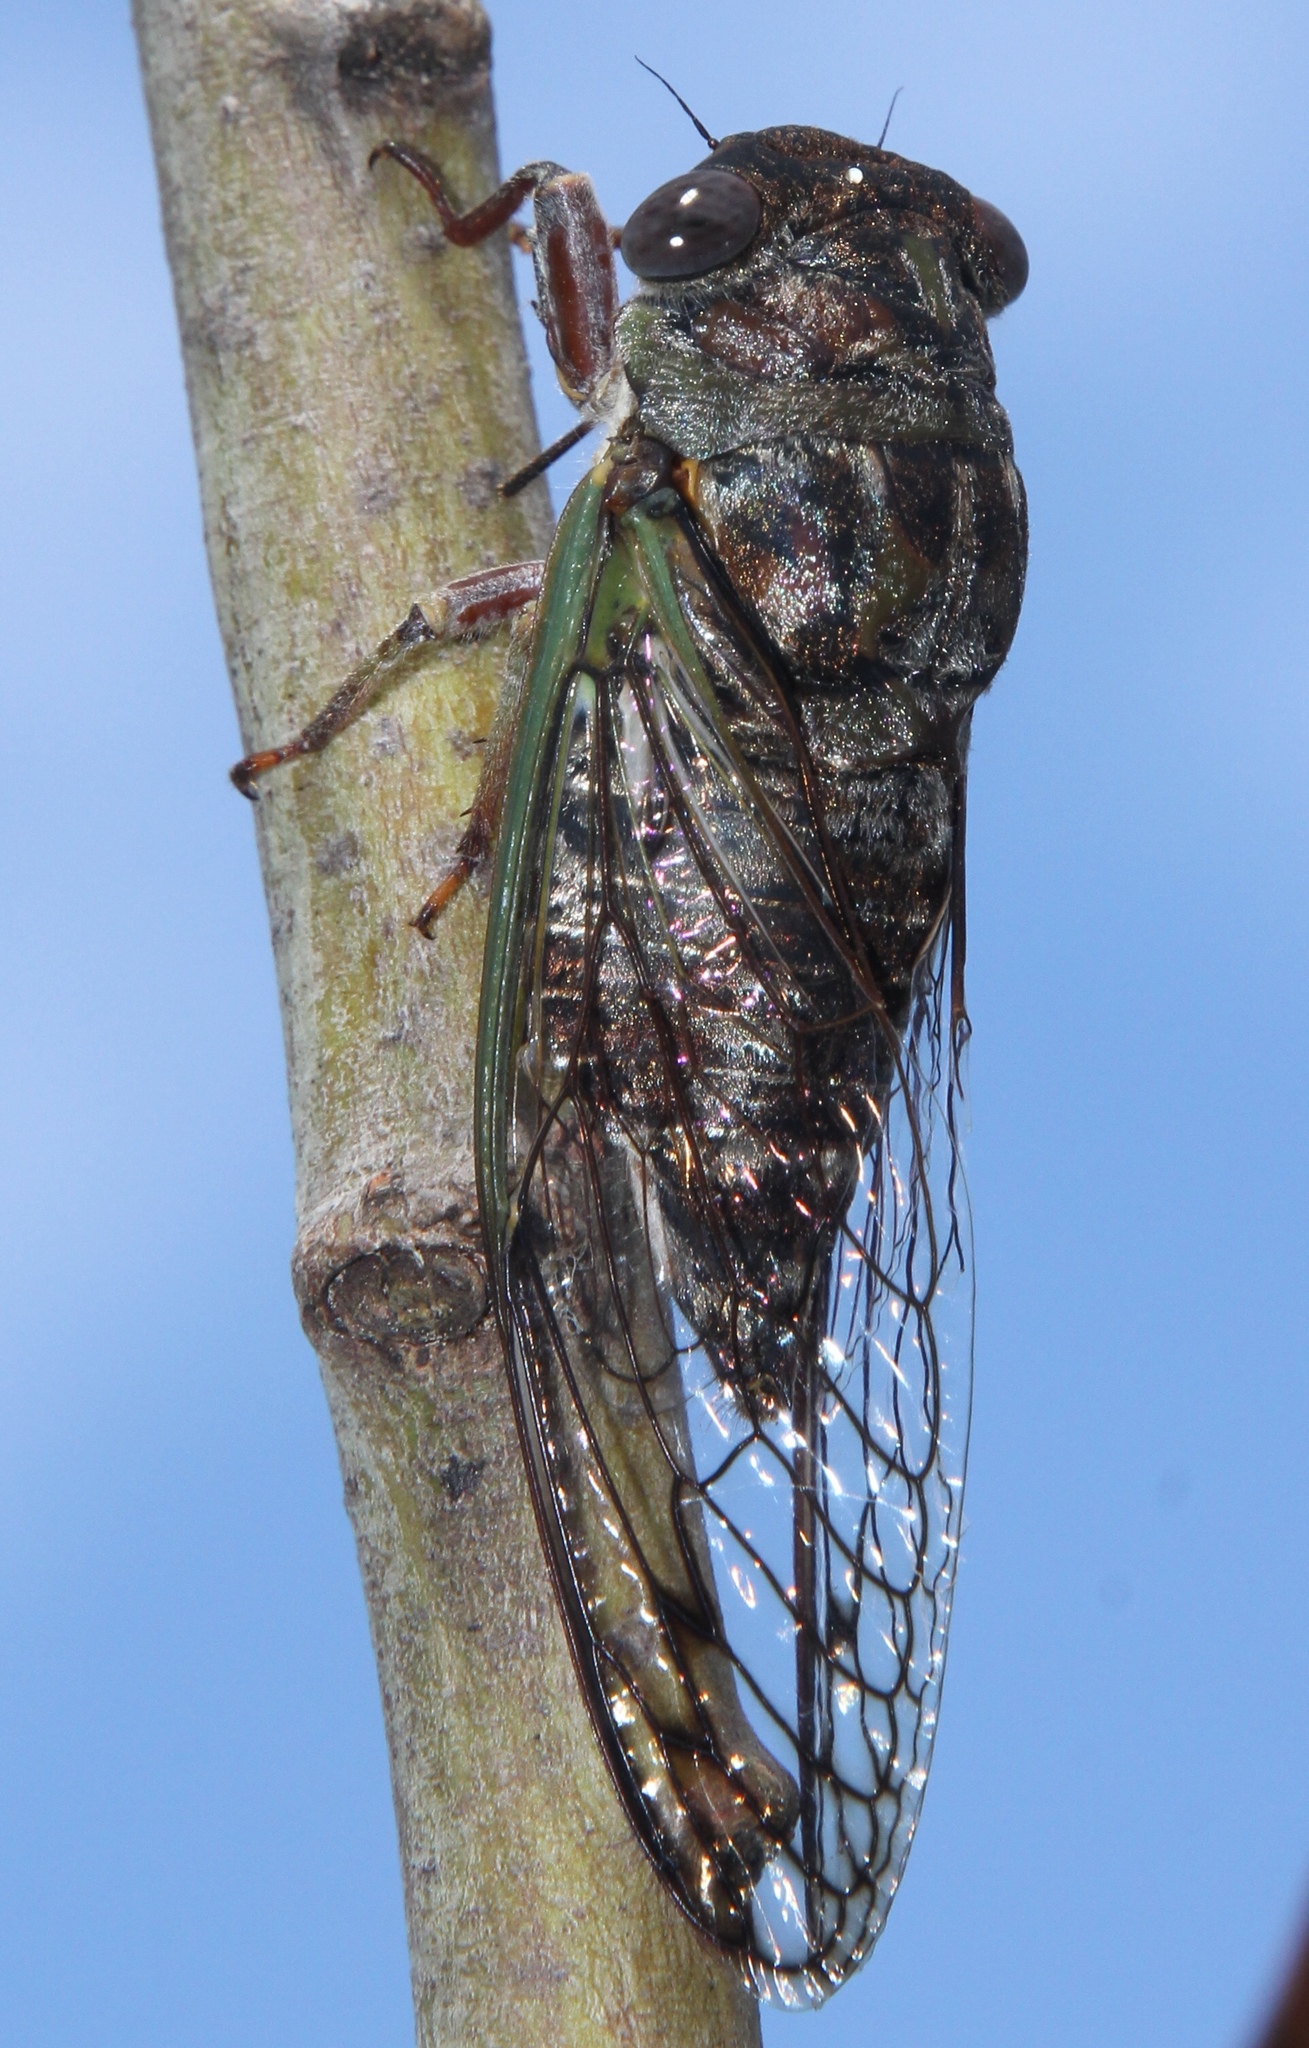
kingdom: Animalia
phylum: Arthropoda
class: Insecta
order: Hemiptera
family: Cicadidae
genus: Diceroprocta
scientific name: Diceroprocta olympusa
